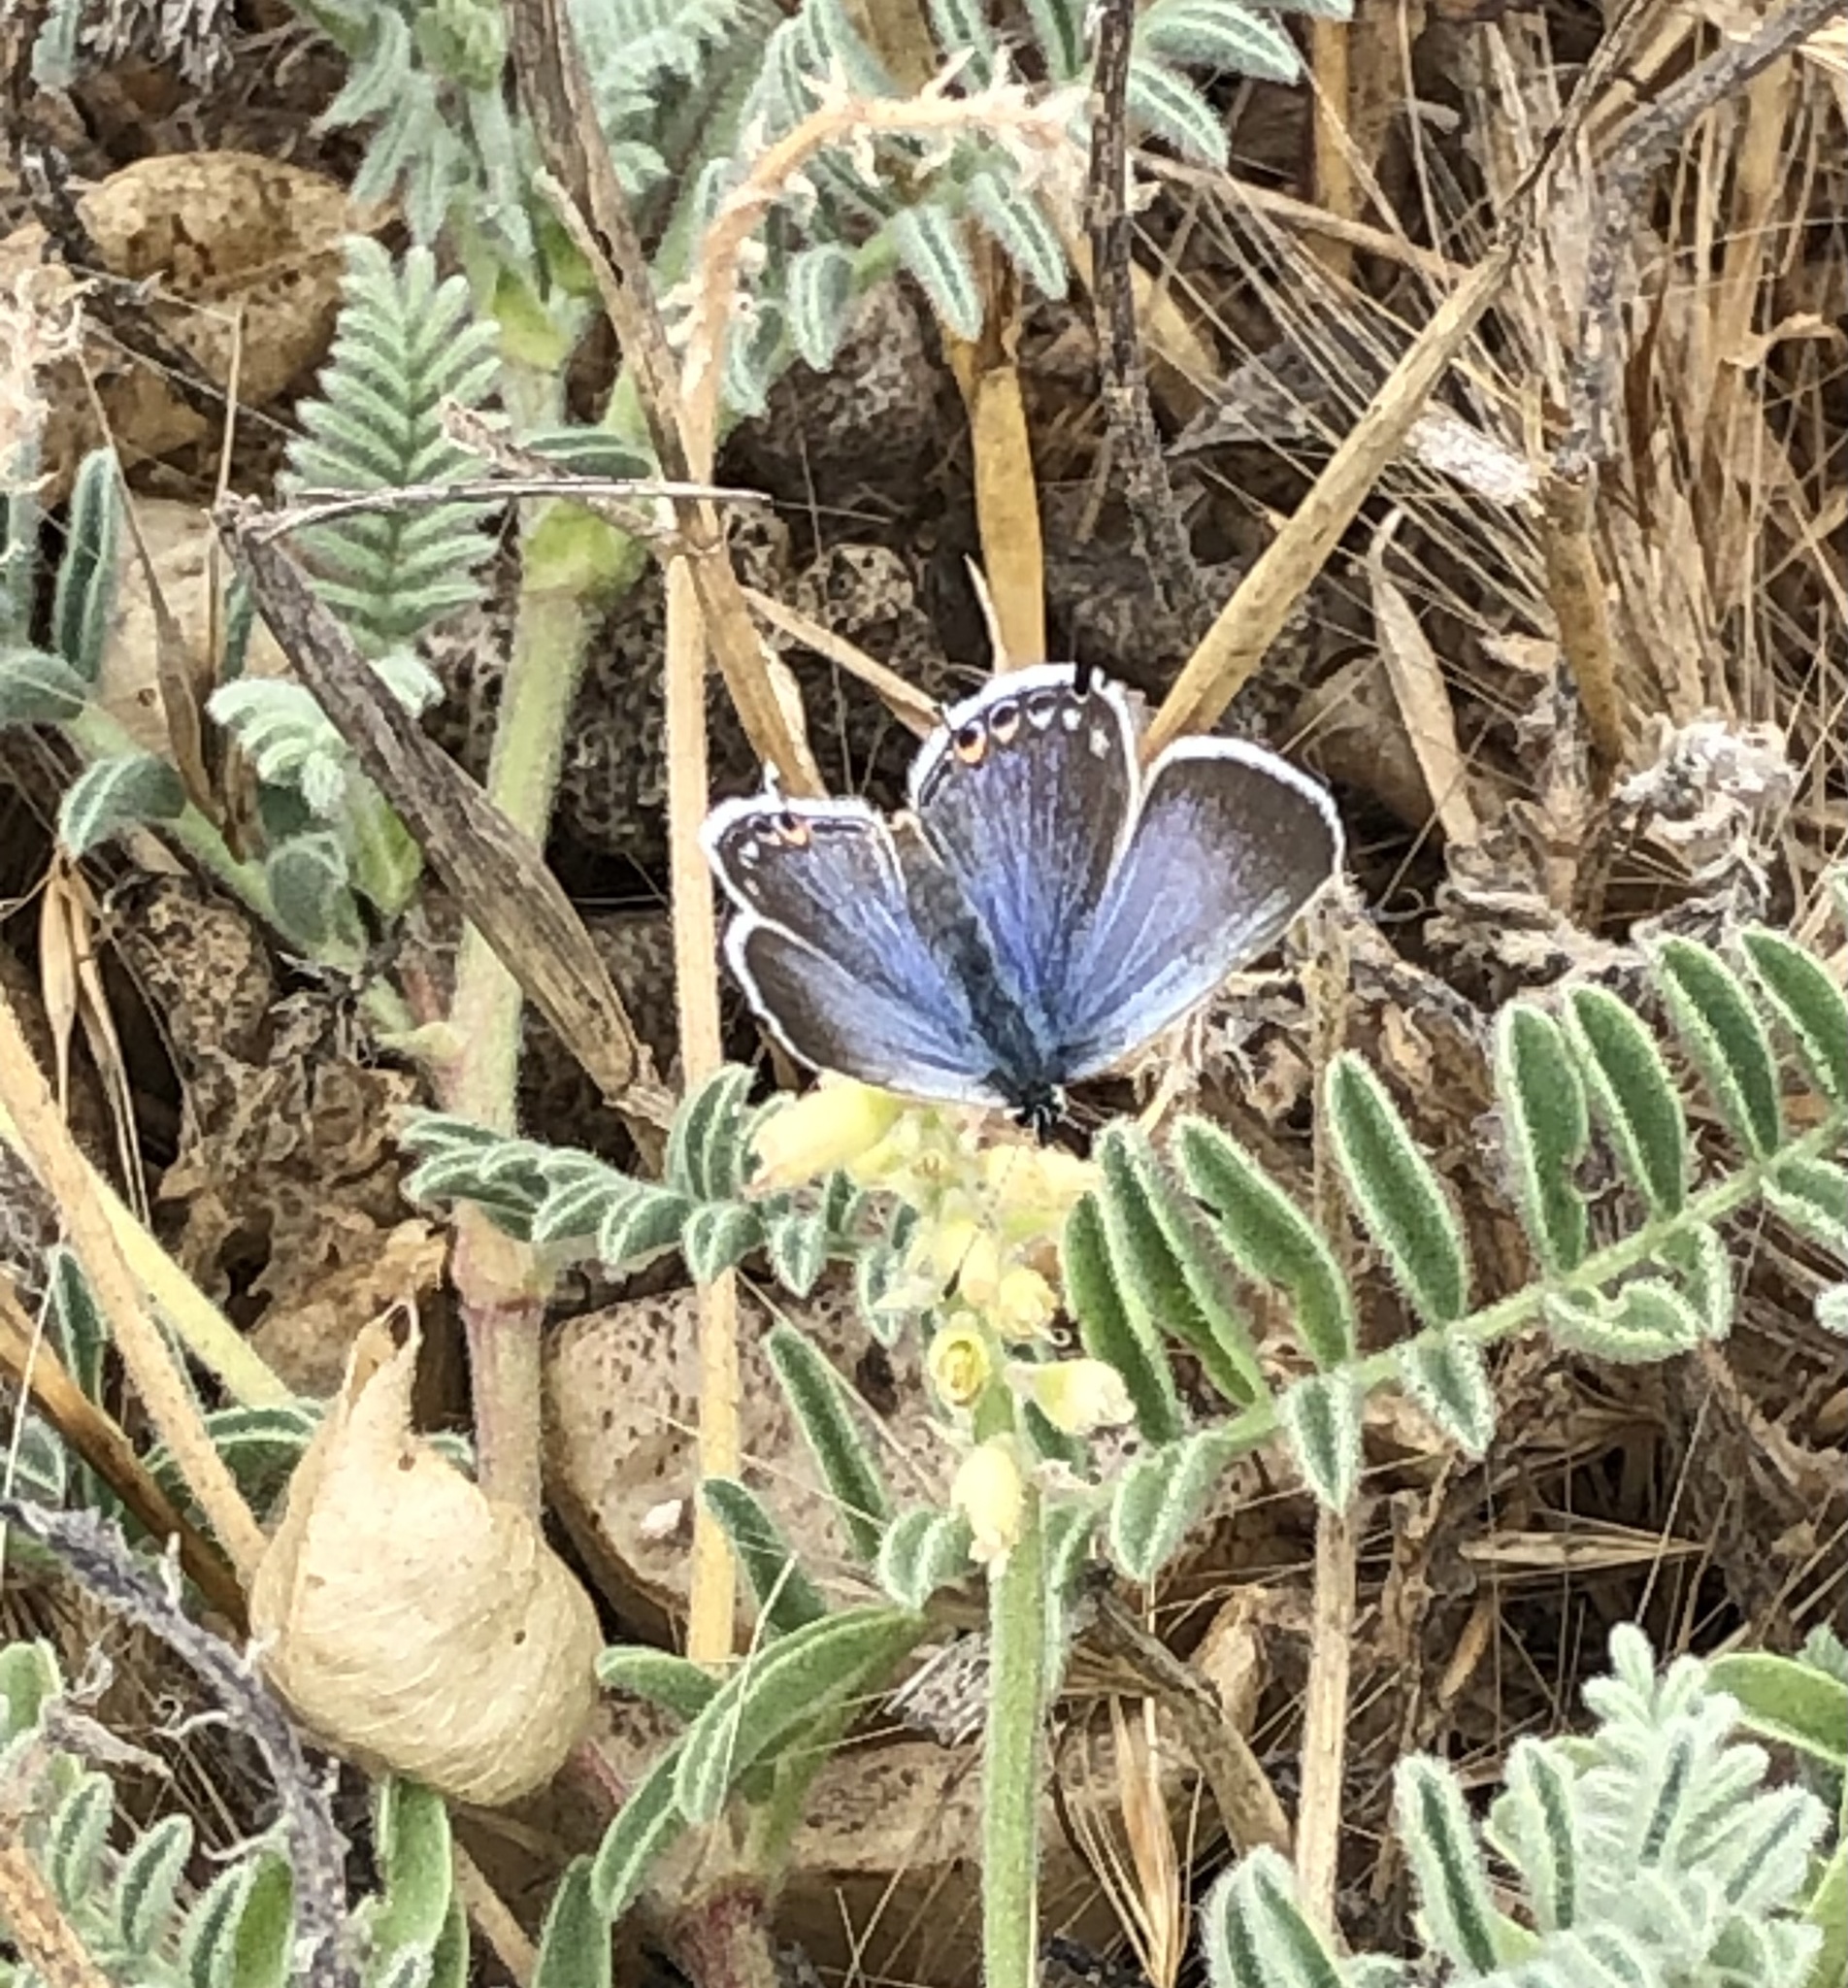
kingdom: Animalia
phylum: Arthropoda
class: Insecta
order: Lepidoptera
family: Lycaenidae
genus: Elkalyce
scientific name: Elkalyce amyntula
